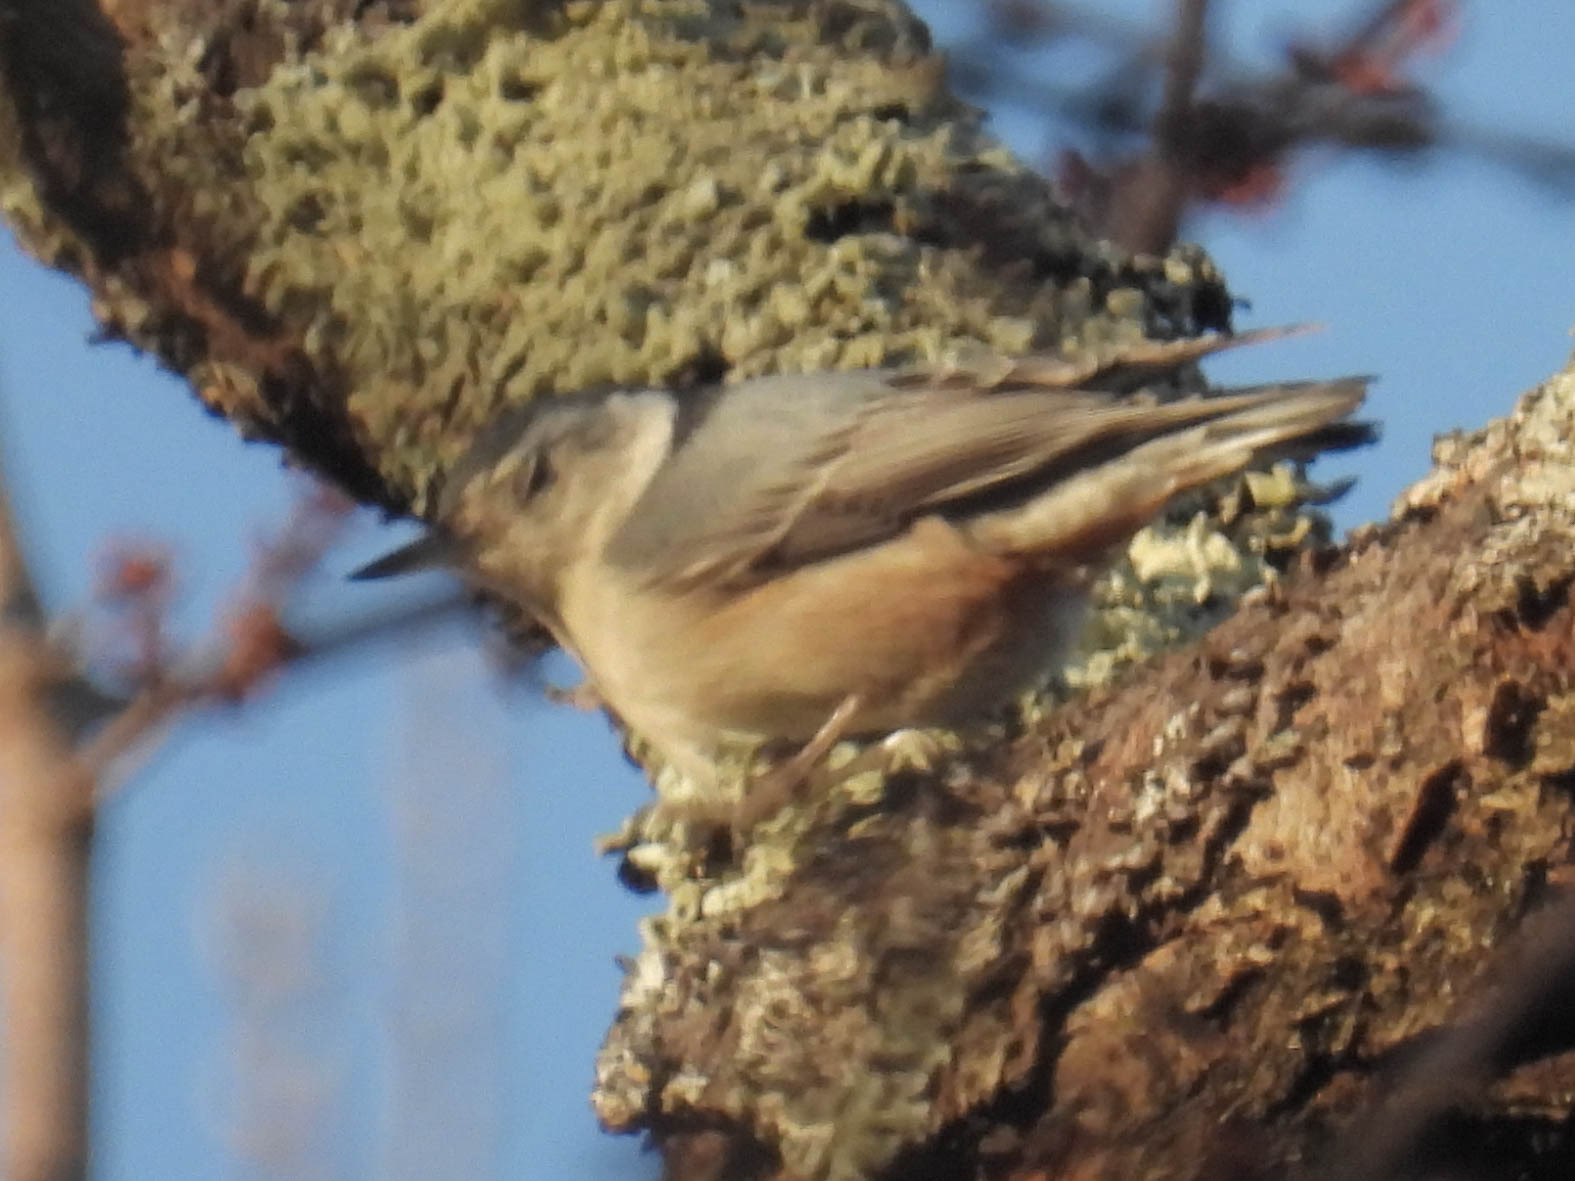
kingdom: Animalia
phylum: Chordata
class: Aves
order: Passeriformes
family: Sittidae
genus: Sitta
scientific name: Sitta carolinensis
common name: White-breasted nuthatch
